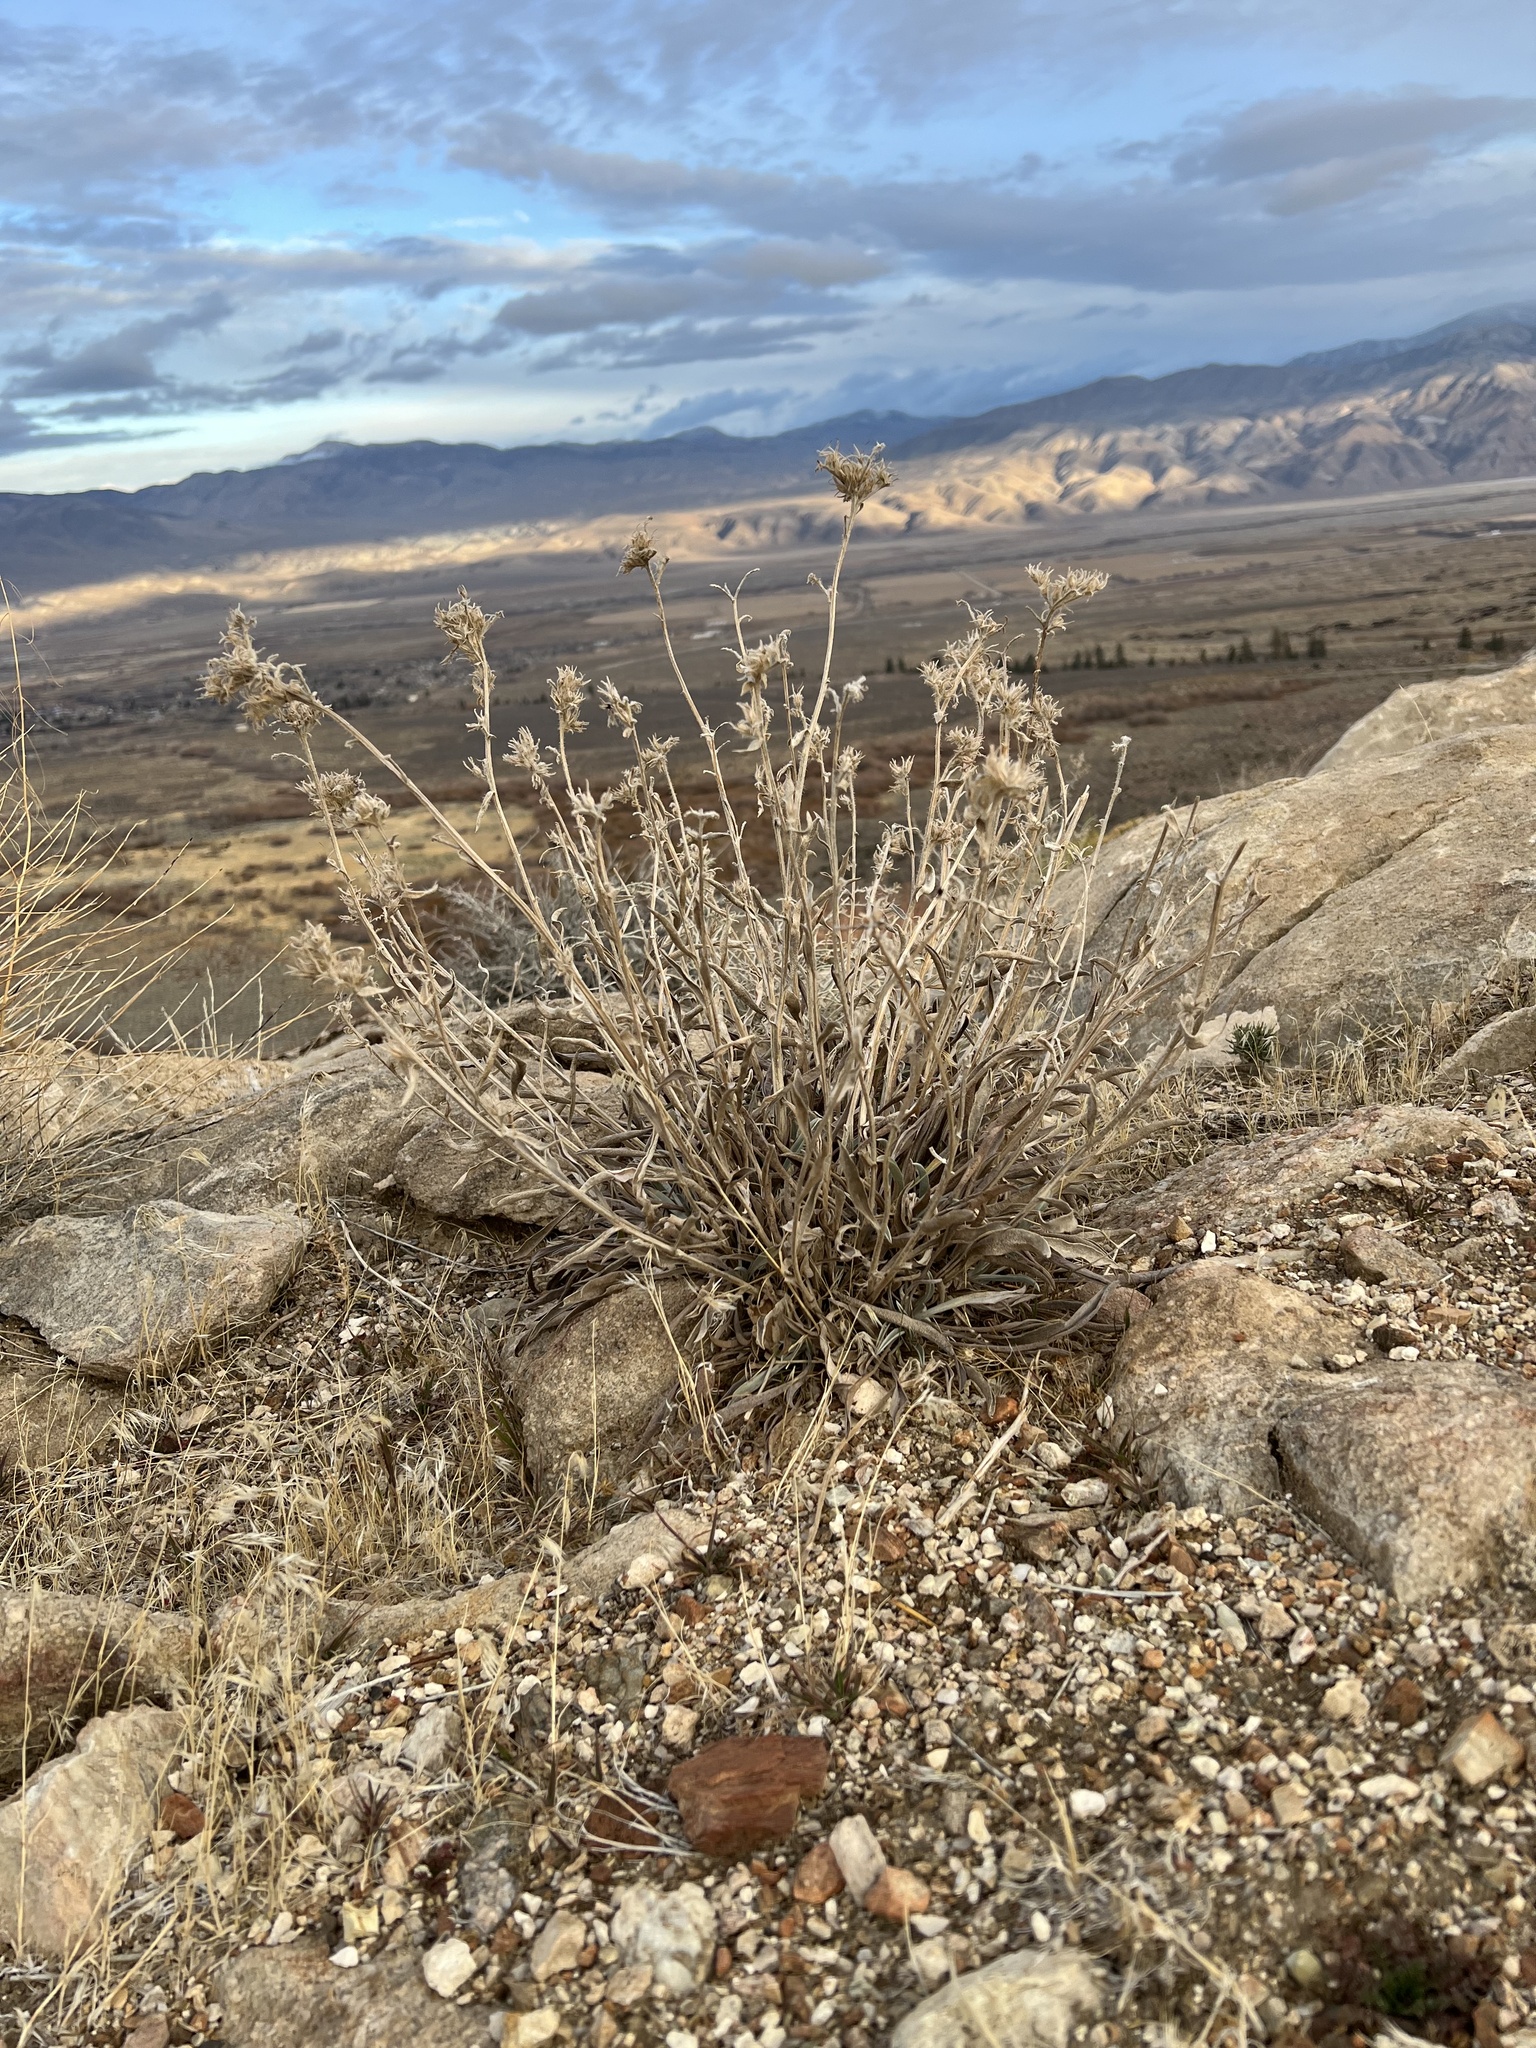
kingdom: Plantae
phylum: Tracheophyta
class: Magnoliopsida
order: Boraginales
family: Boraginaceae
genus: Oreocarya
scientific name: Oreocarya confertiflora
